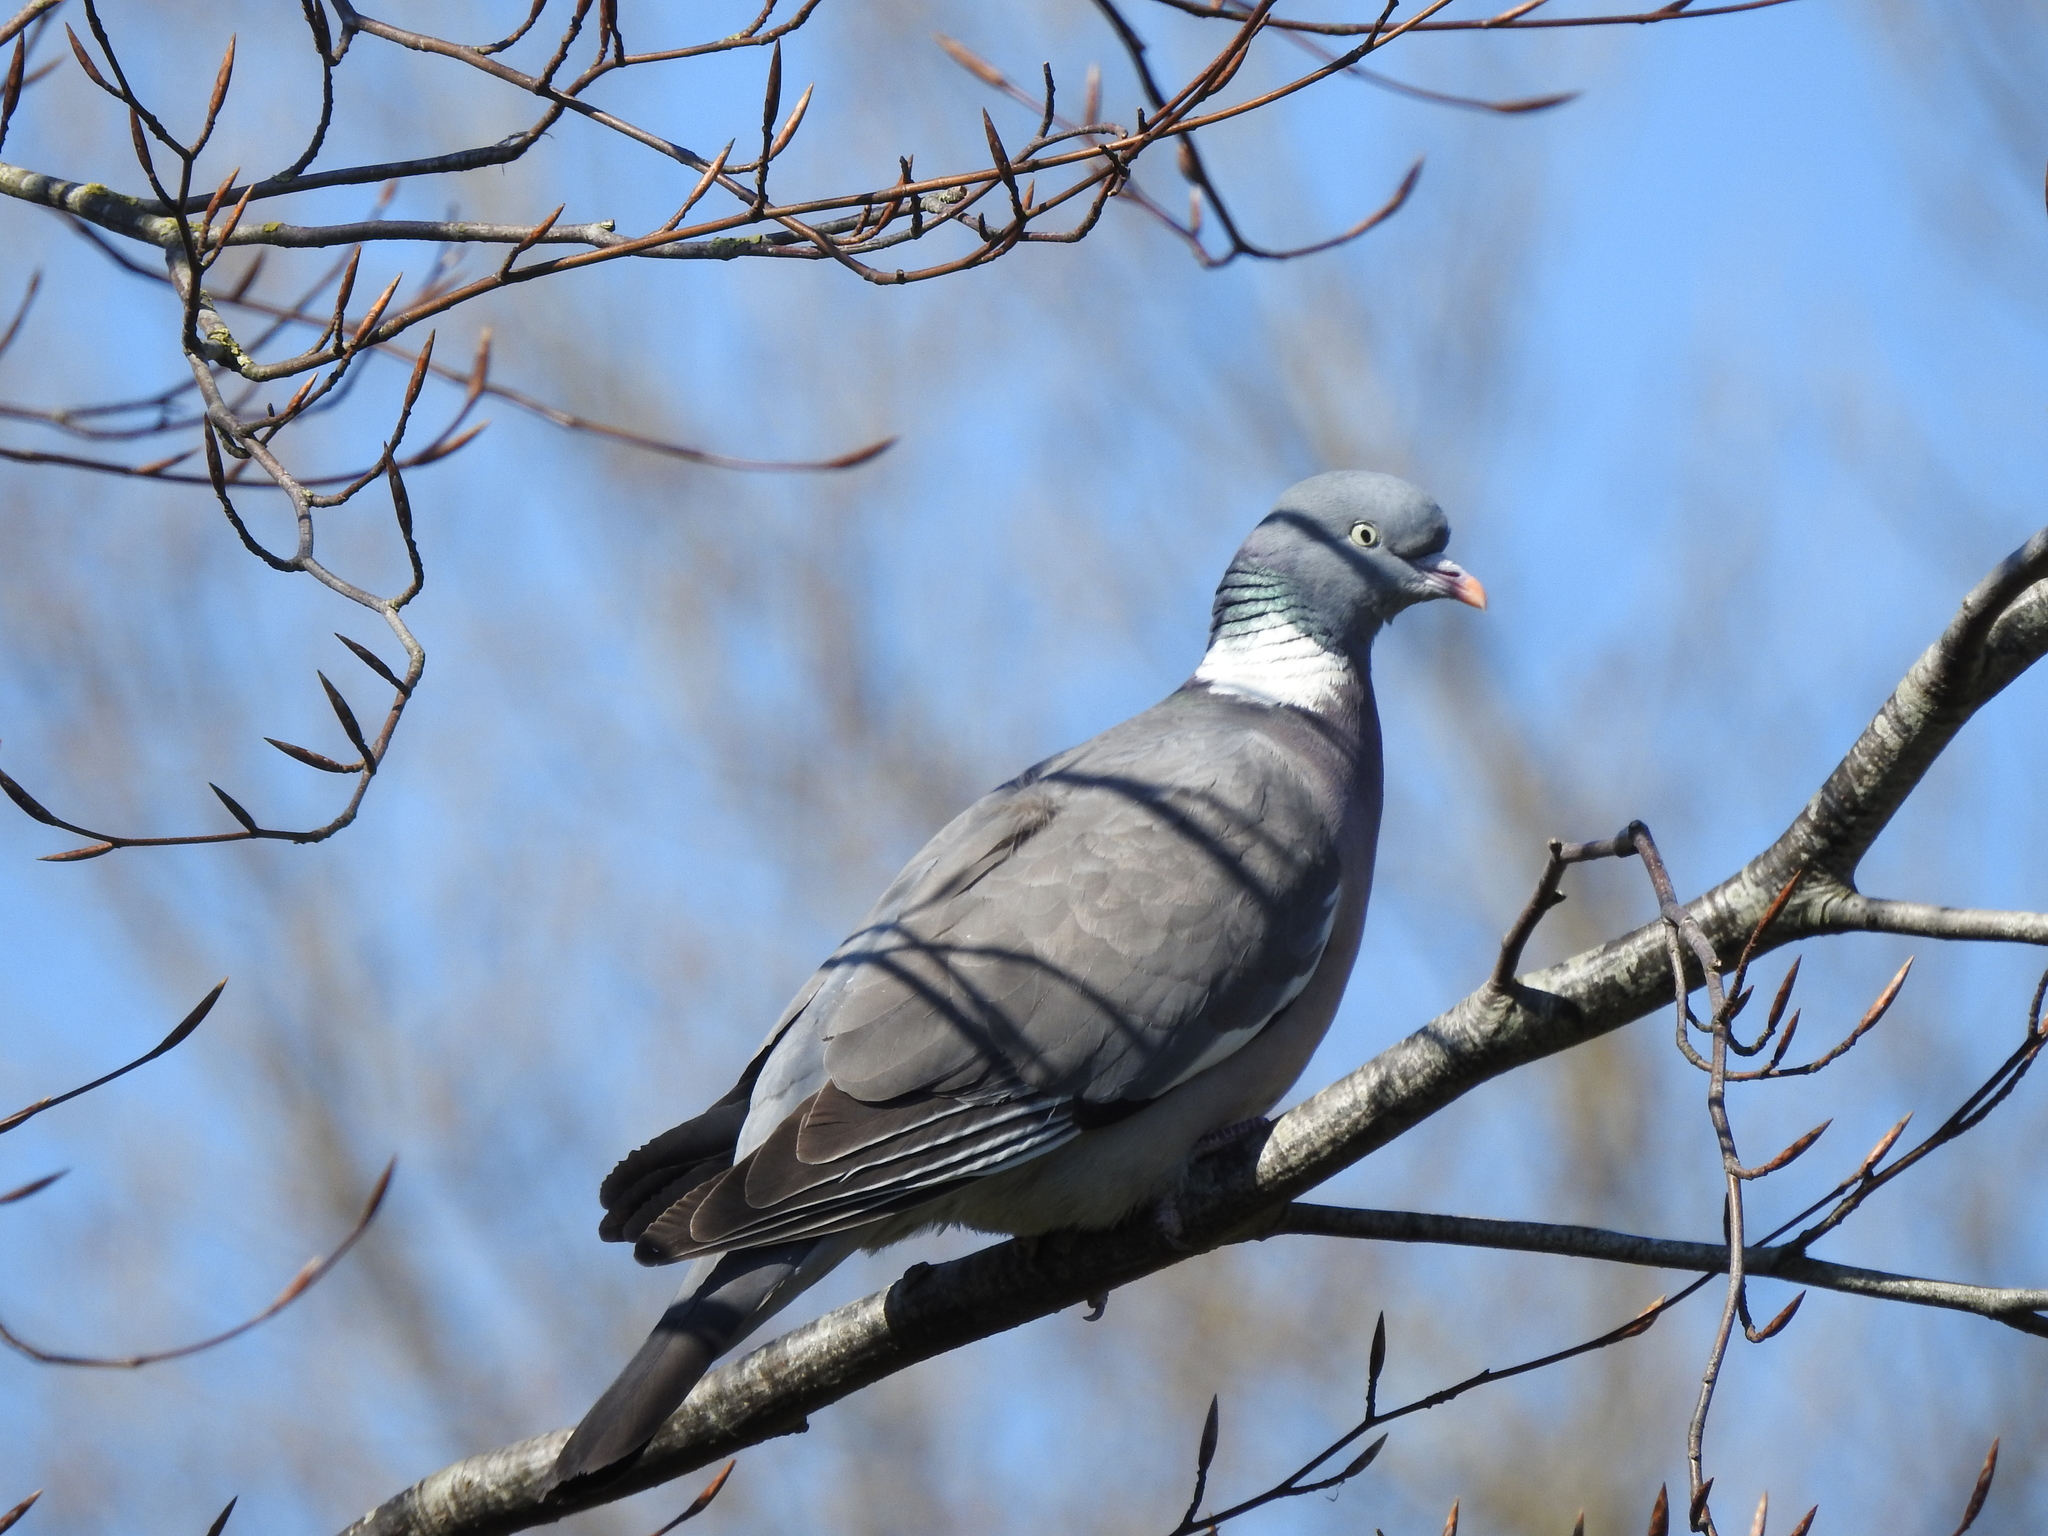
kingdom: Animalia
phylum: Chordata
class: Aves
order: Columbiformes
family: Columbidae
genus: Columba
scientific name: Columba palumbus
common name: Common wood pigeon
